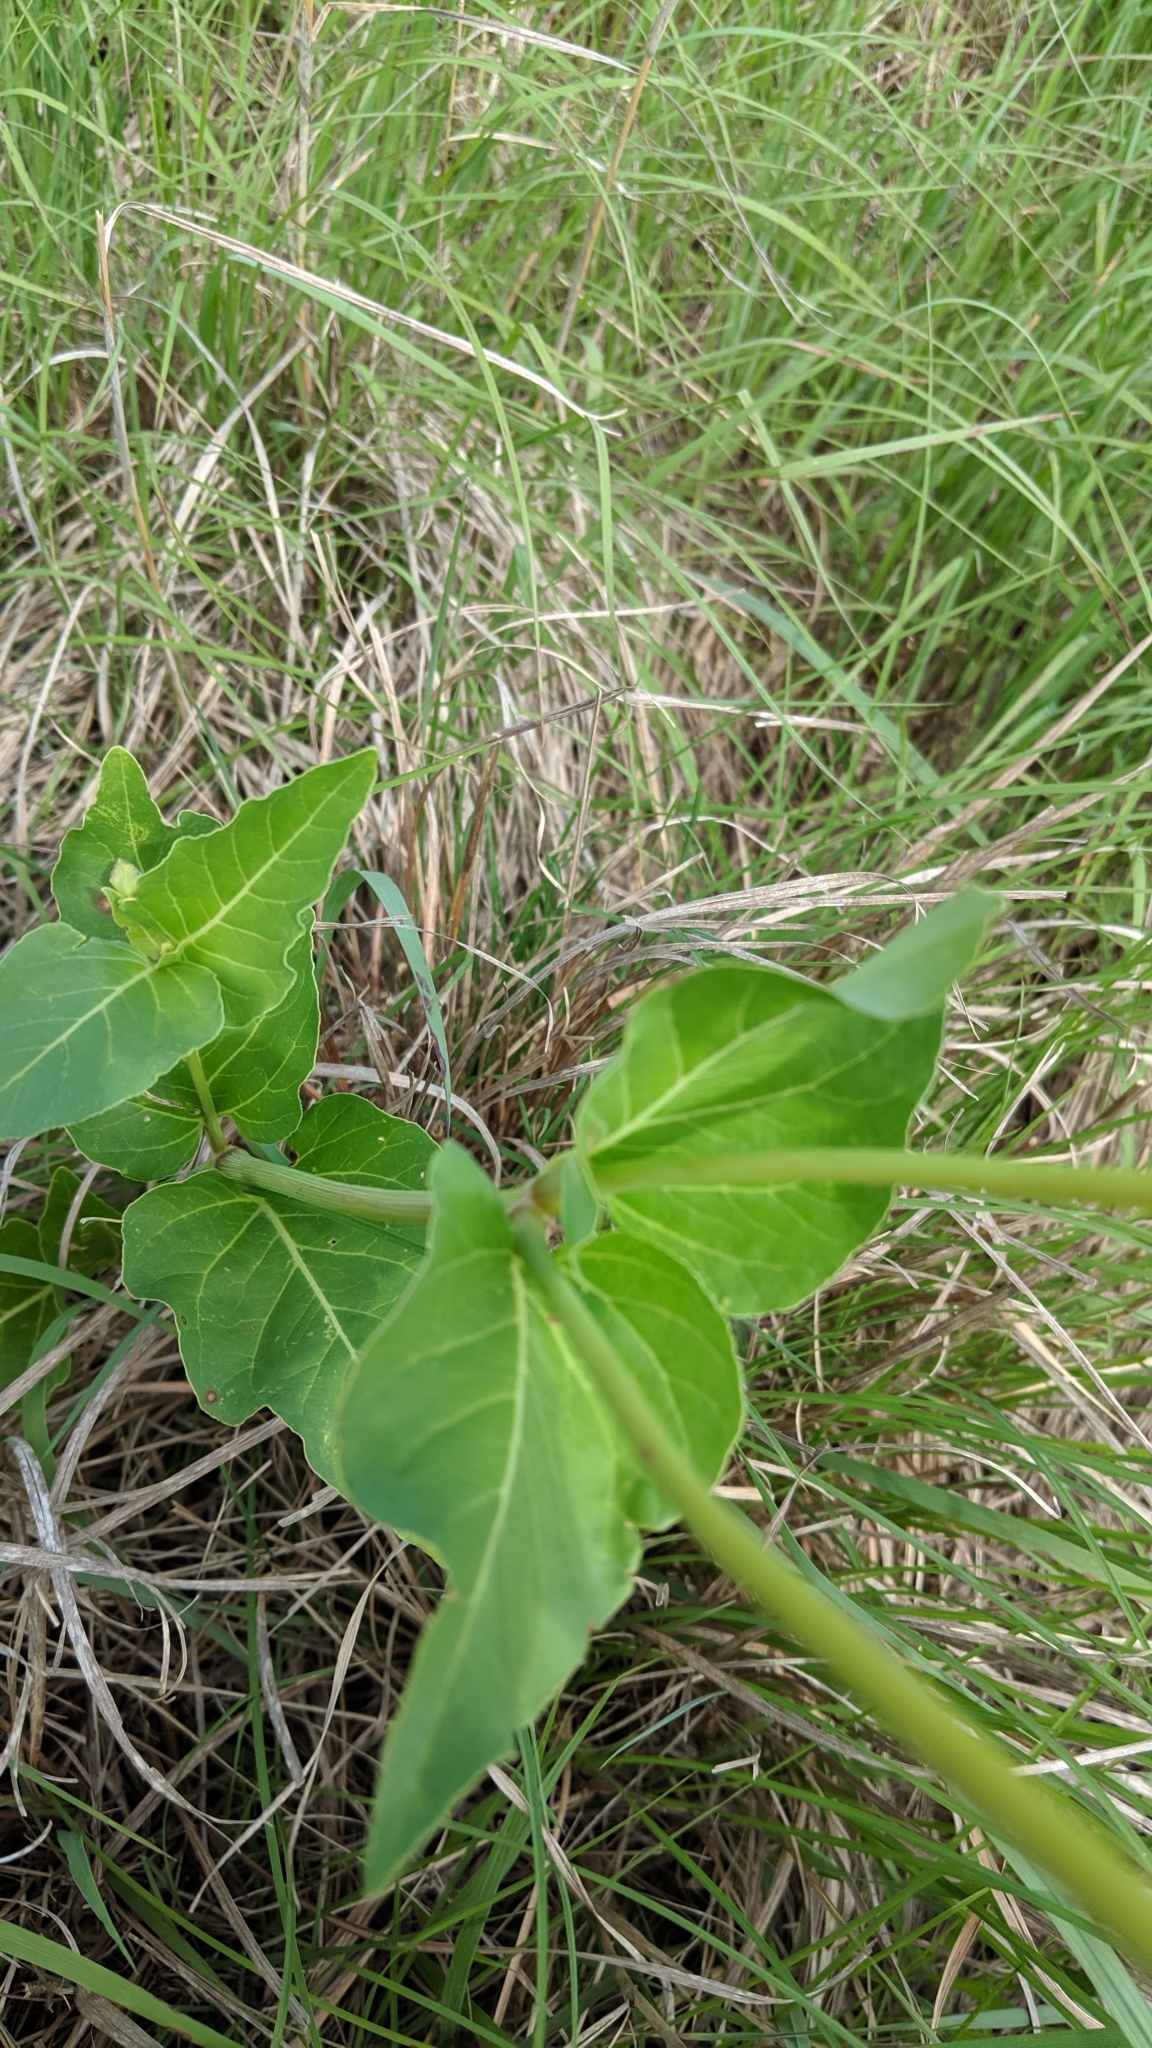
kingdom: Plantae
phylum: Tracheophyta
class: Magnoliopsida
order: Caryophyllales
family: Nyctaginaceae
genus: Mirabilis
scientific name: Mirabilis nyctaginea
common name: Umbrella wort
